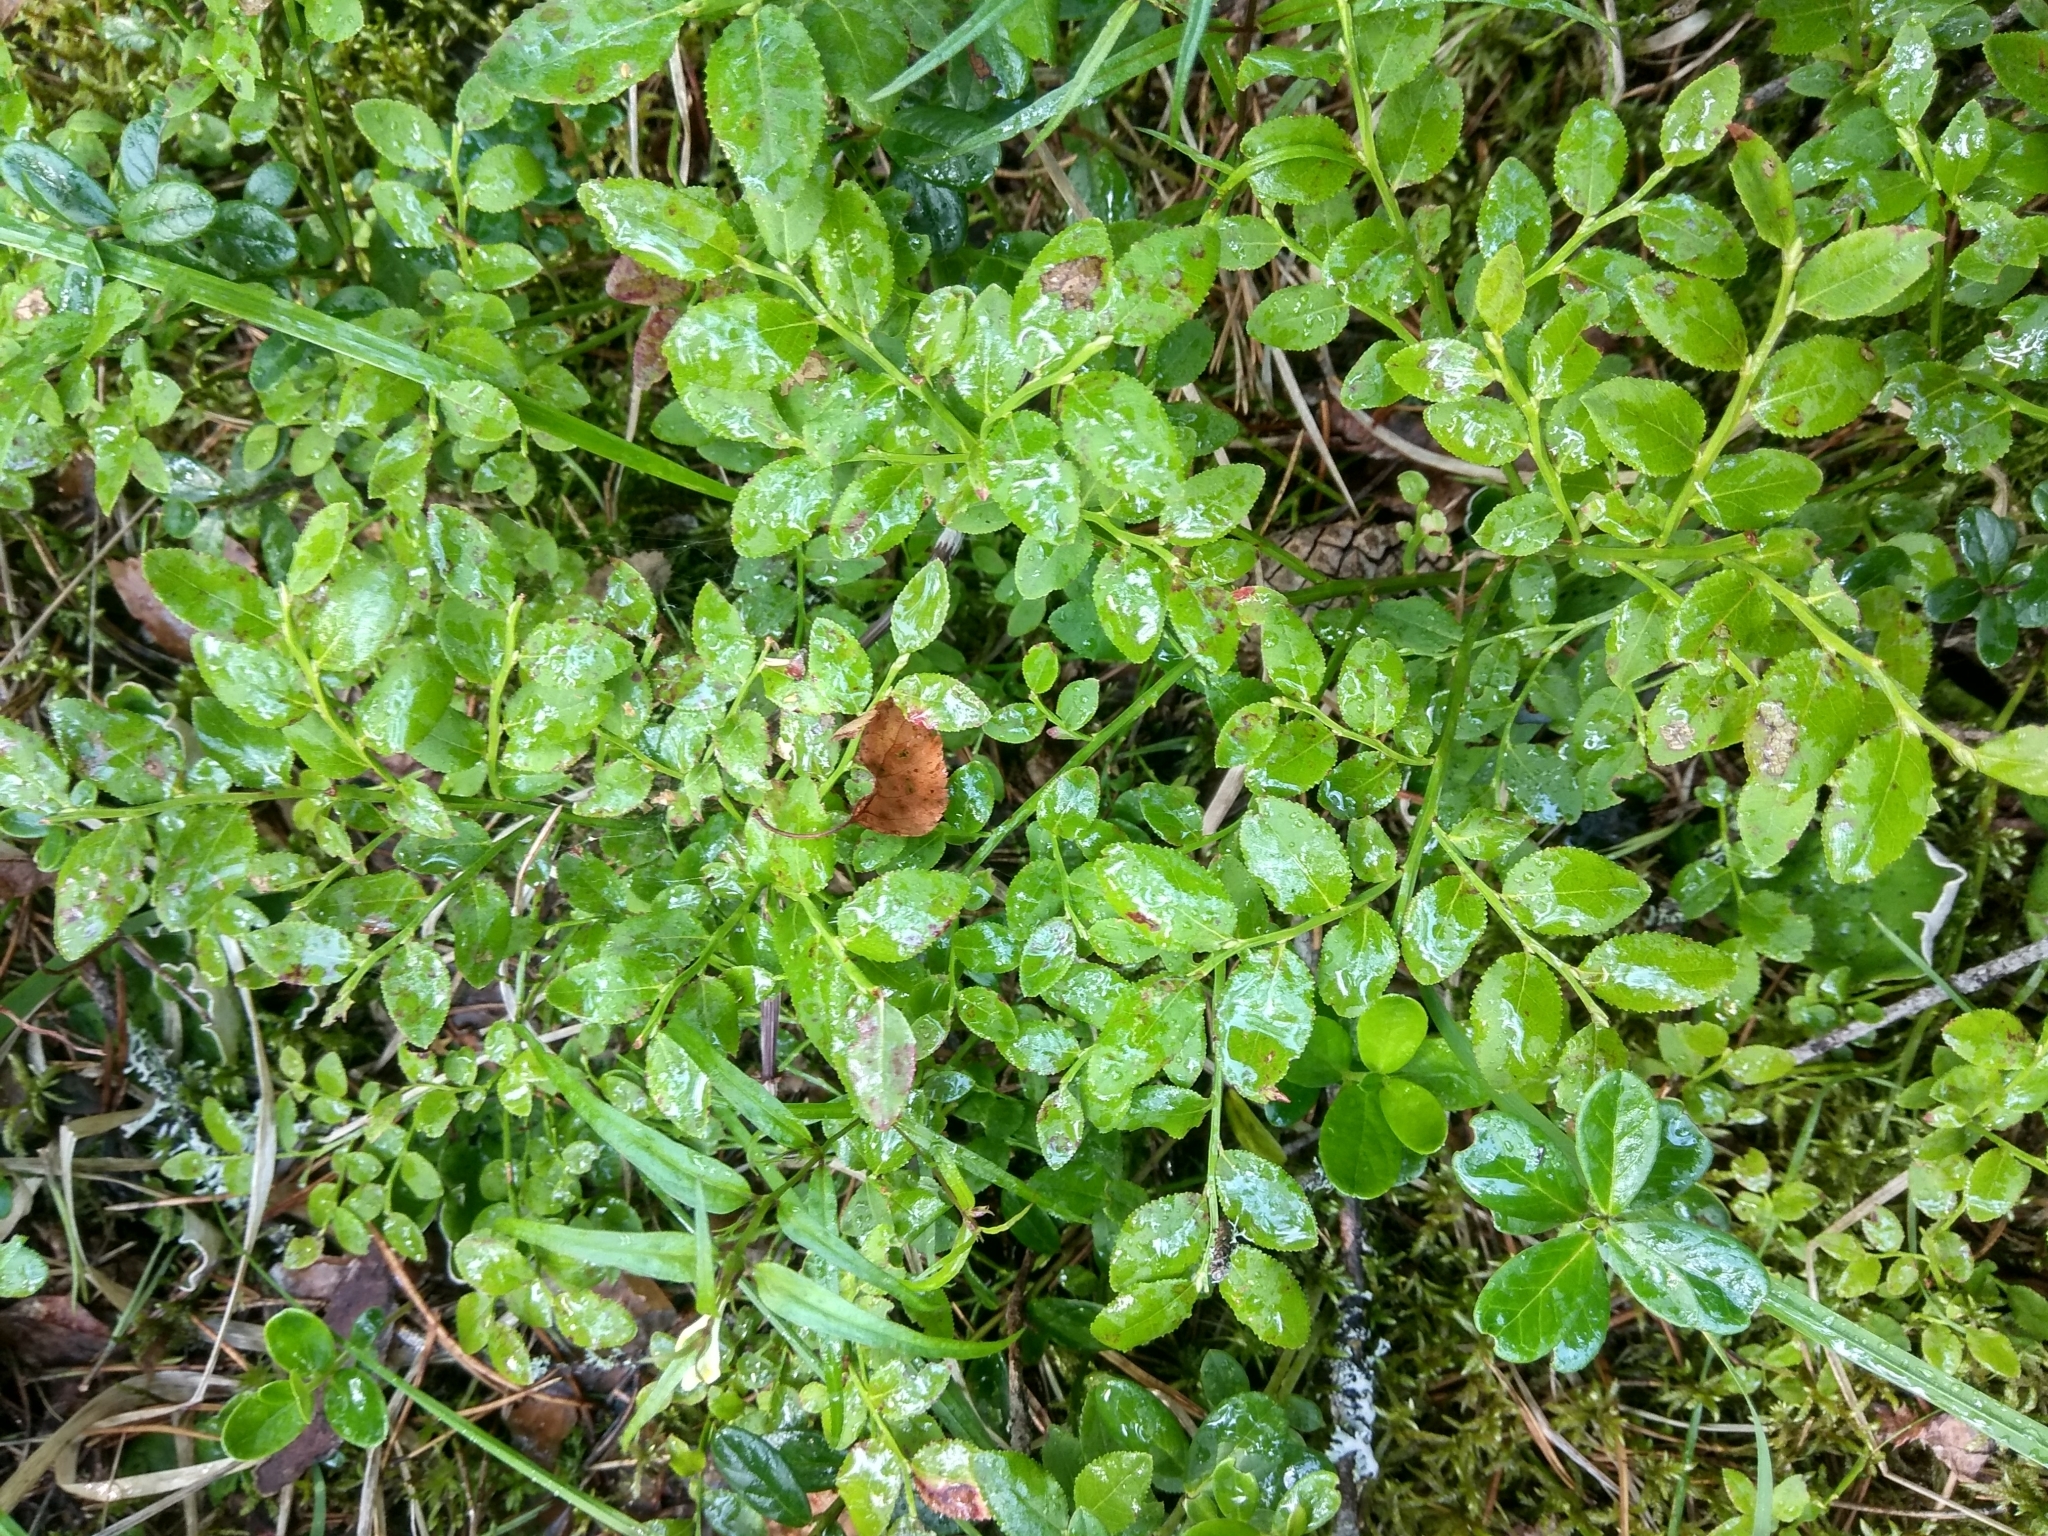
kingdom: Plantae
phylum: Tracheophyta
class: Magnoliopsida
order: Ericales
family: Ericaceae
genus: Vaccinium
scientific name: Vaccinium myrtillus
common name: Bilberry
